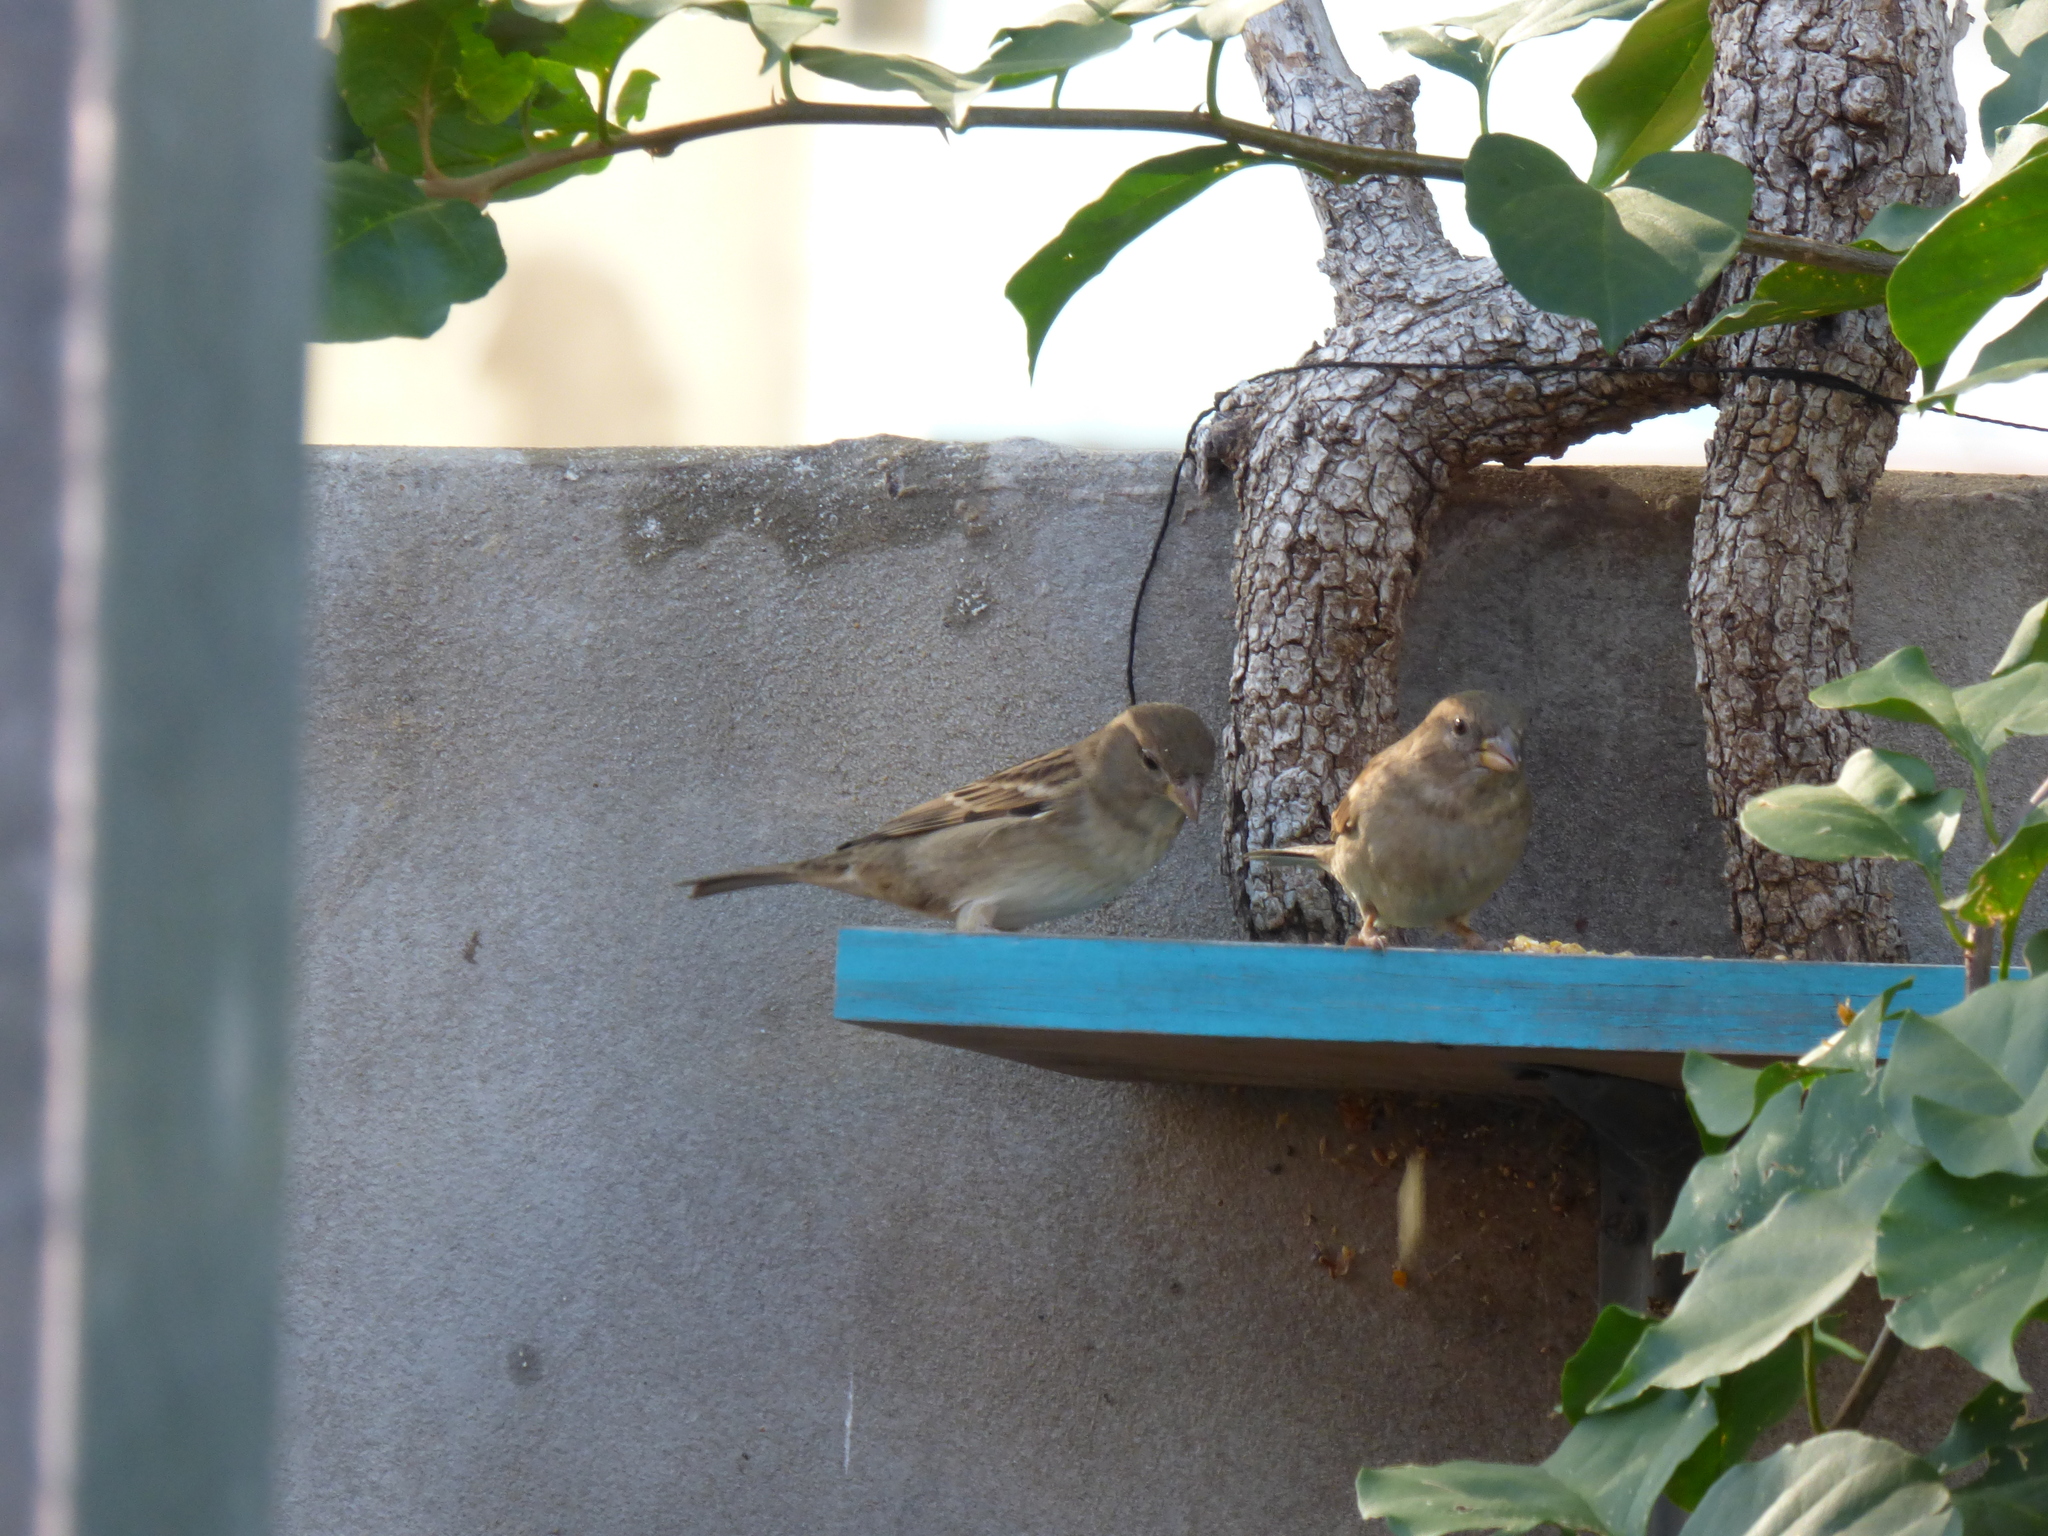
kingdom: Animalia
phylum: Chordata
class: Aves
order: Passeriformes
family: Passeridae
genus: Passer
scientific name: Passer domesticus
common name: House sparrow
